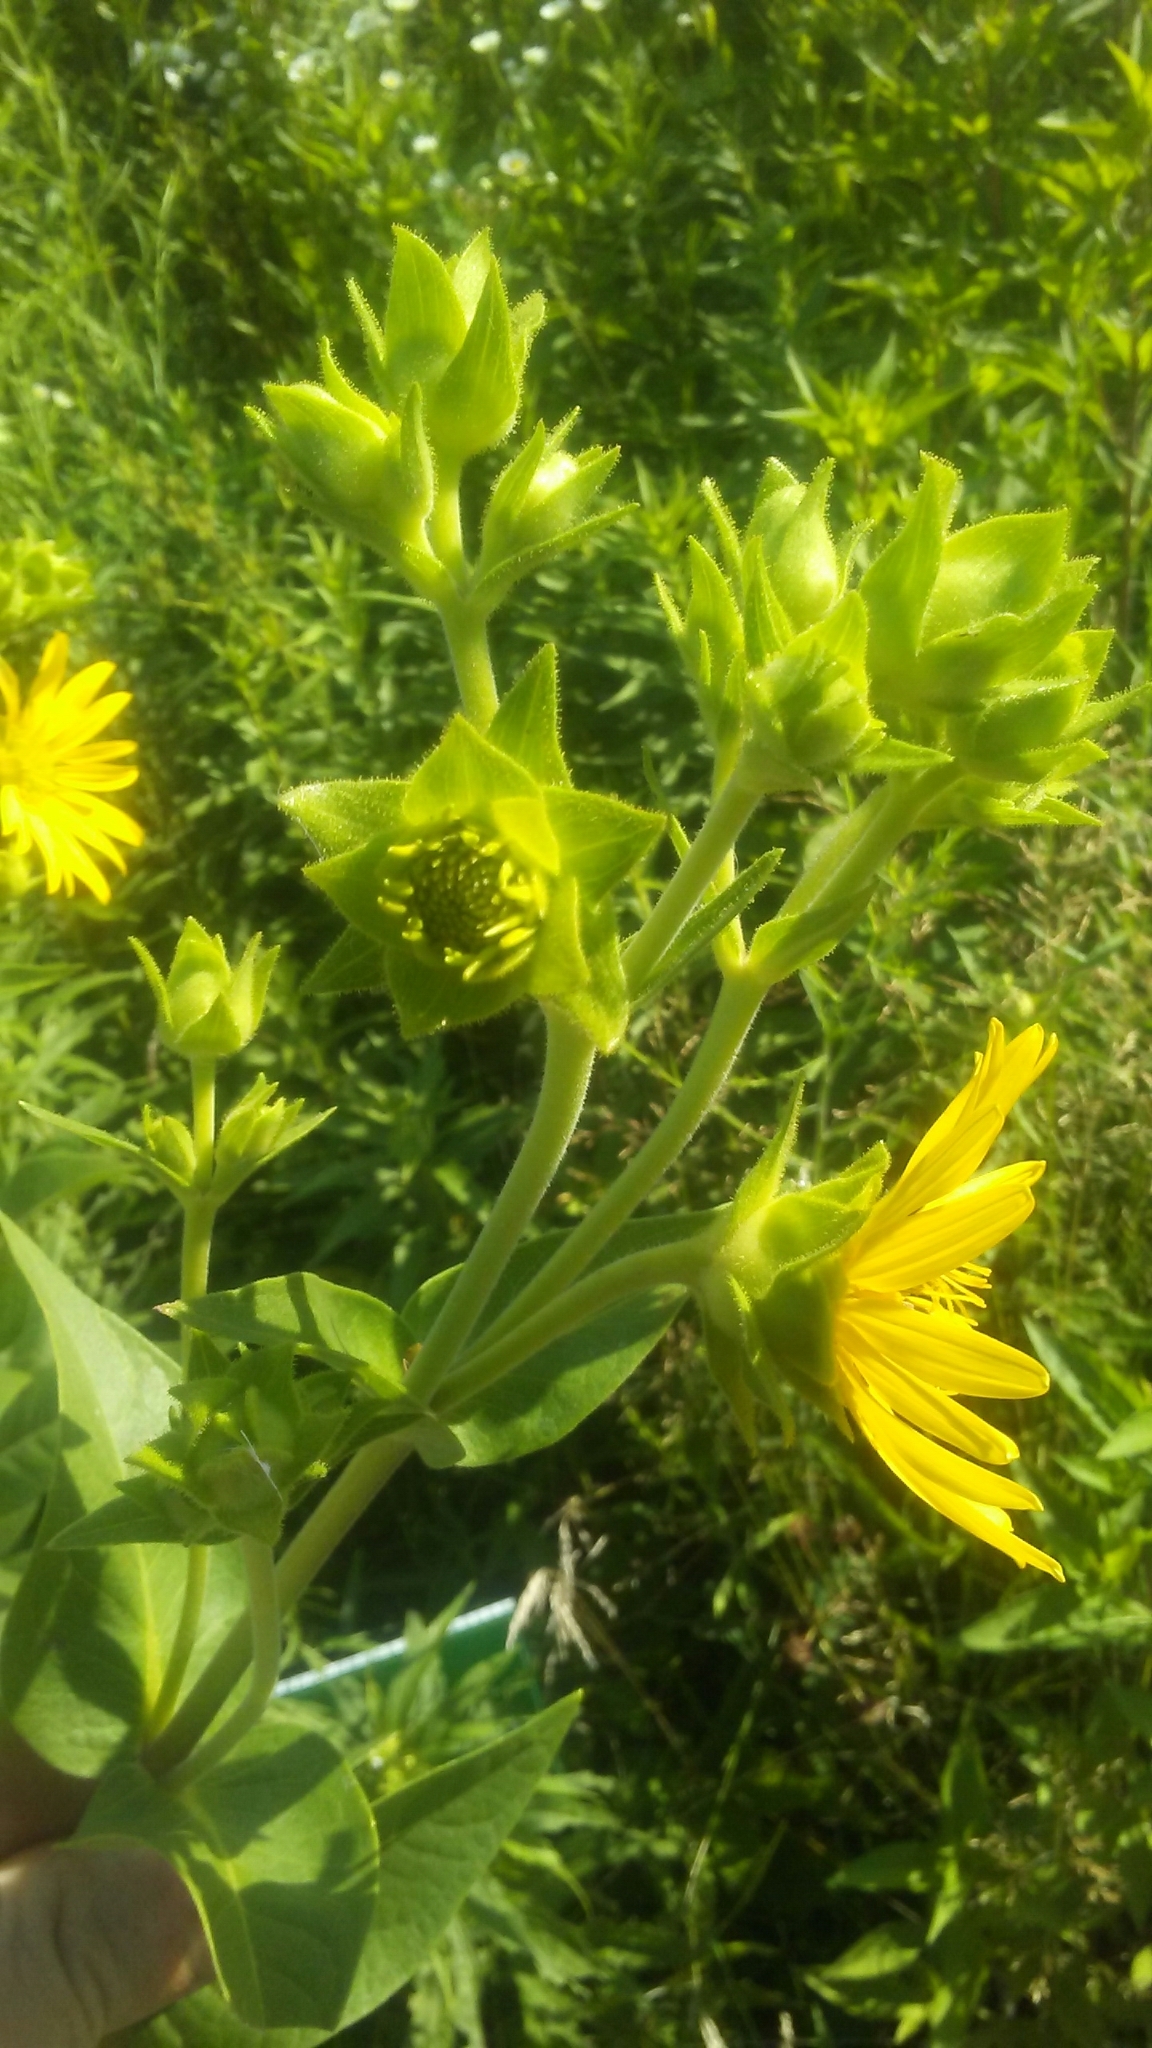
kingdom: Plantae
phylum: Tracheophyta
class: Magnoliopsida
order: Asterales
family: Asteraceae
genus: Silphium
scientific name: Silphium integrifolium
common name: Whole-leaf rosinweed
